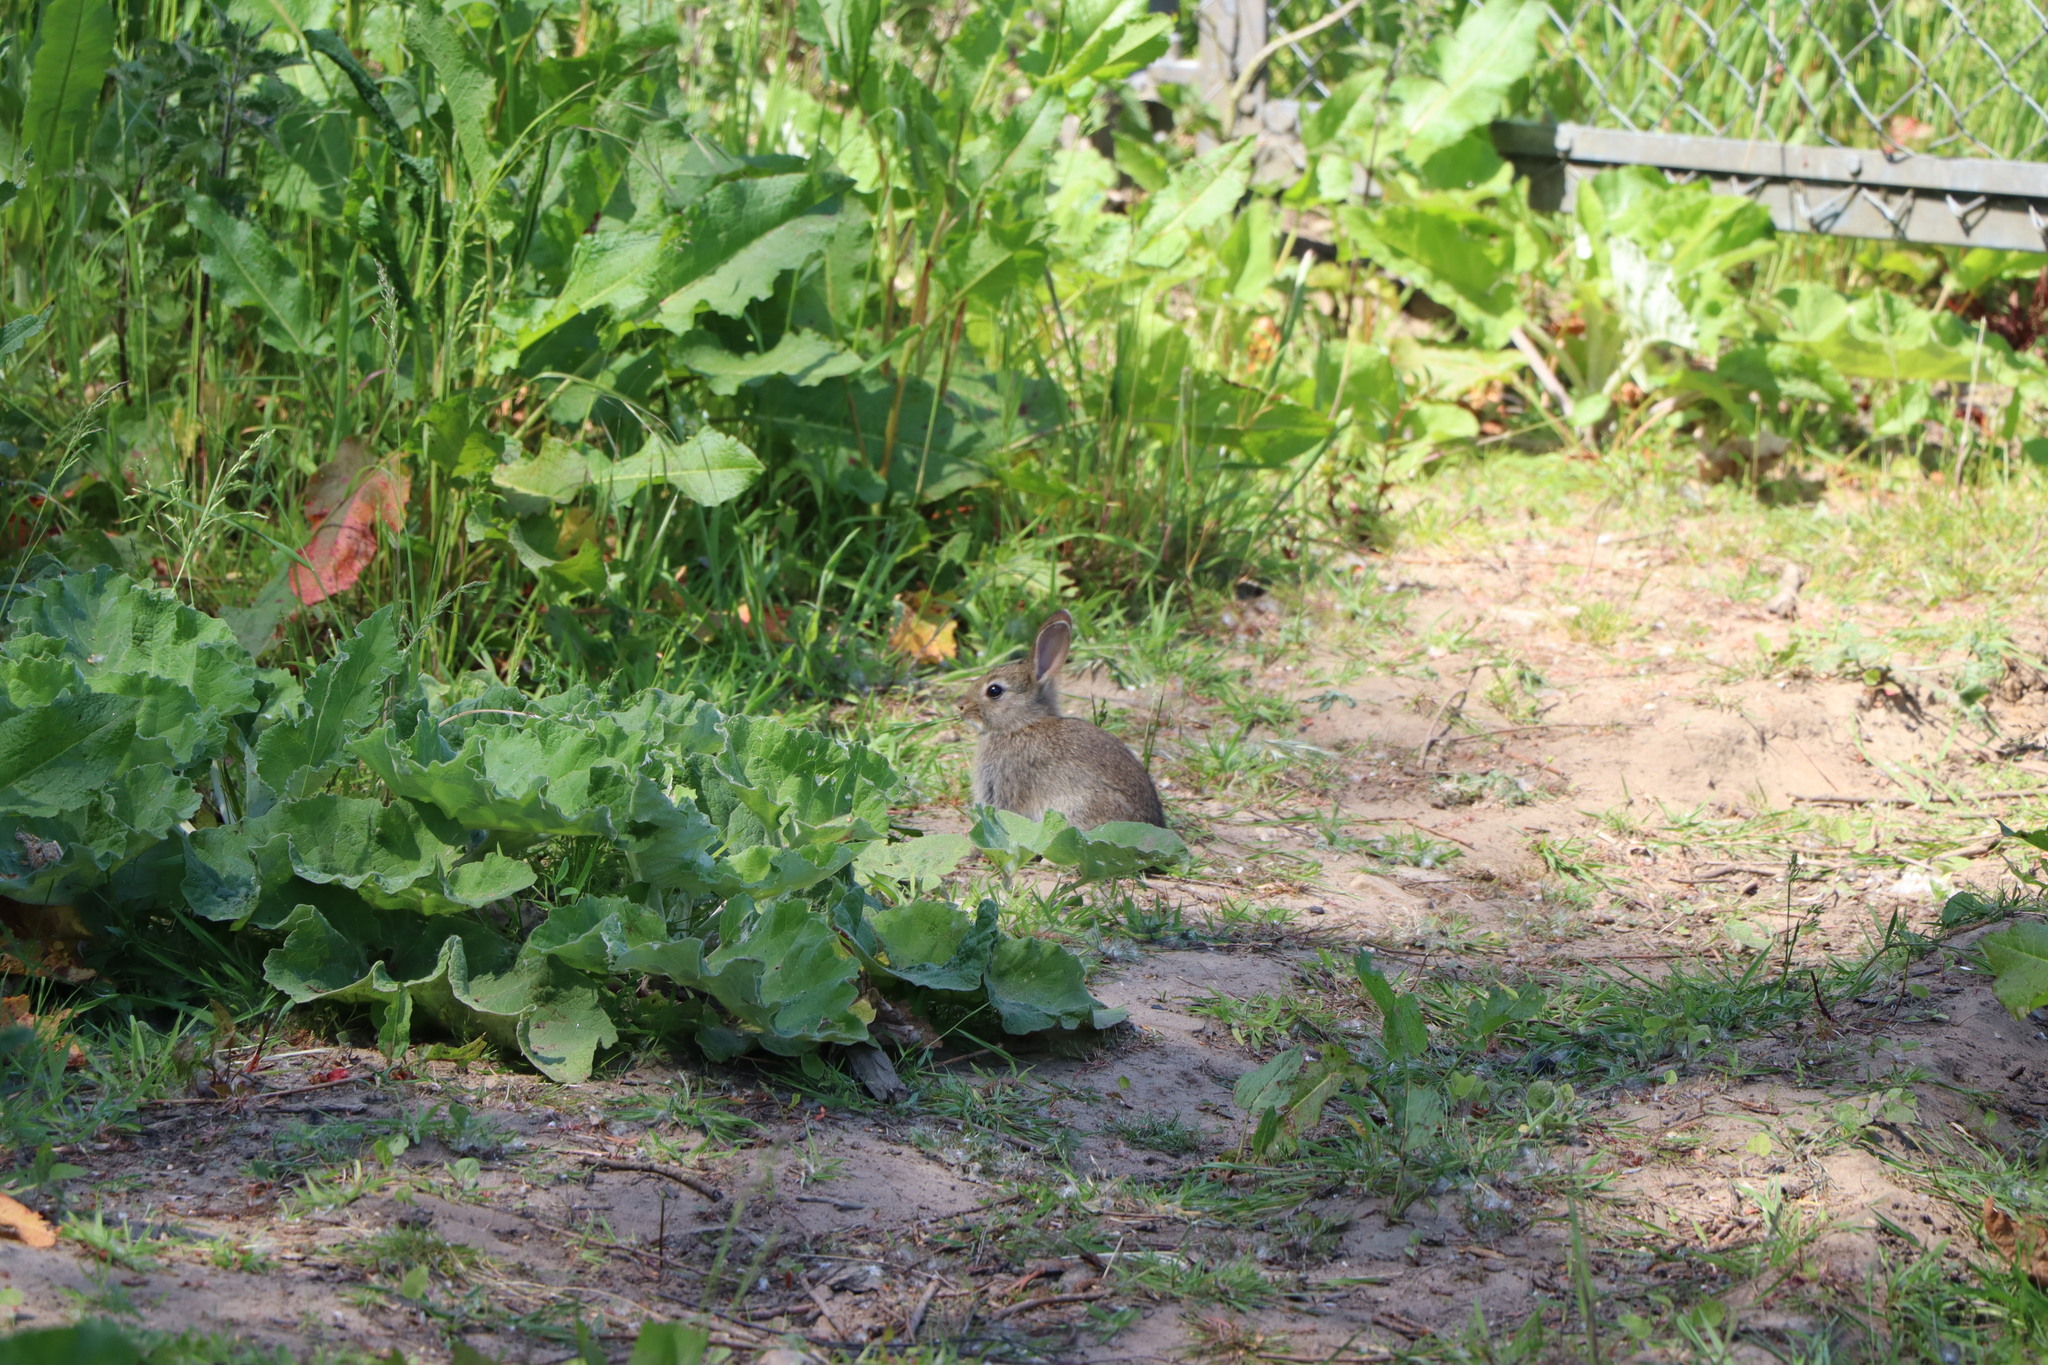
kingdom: Animalia
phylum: Chordata
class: Mammalia
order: Lagomorpha
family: Leporidae
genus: Oryctolagus
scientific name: Oryctolagus cuniculus
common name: European rabbit
